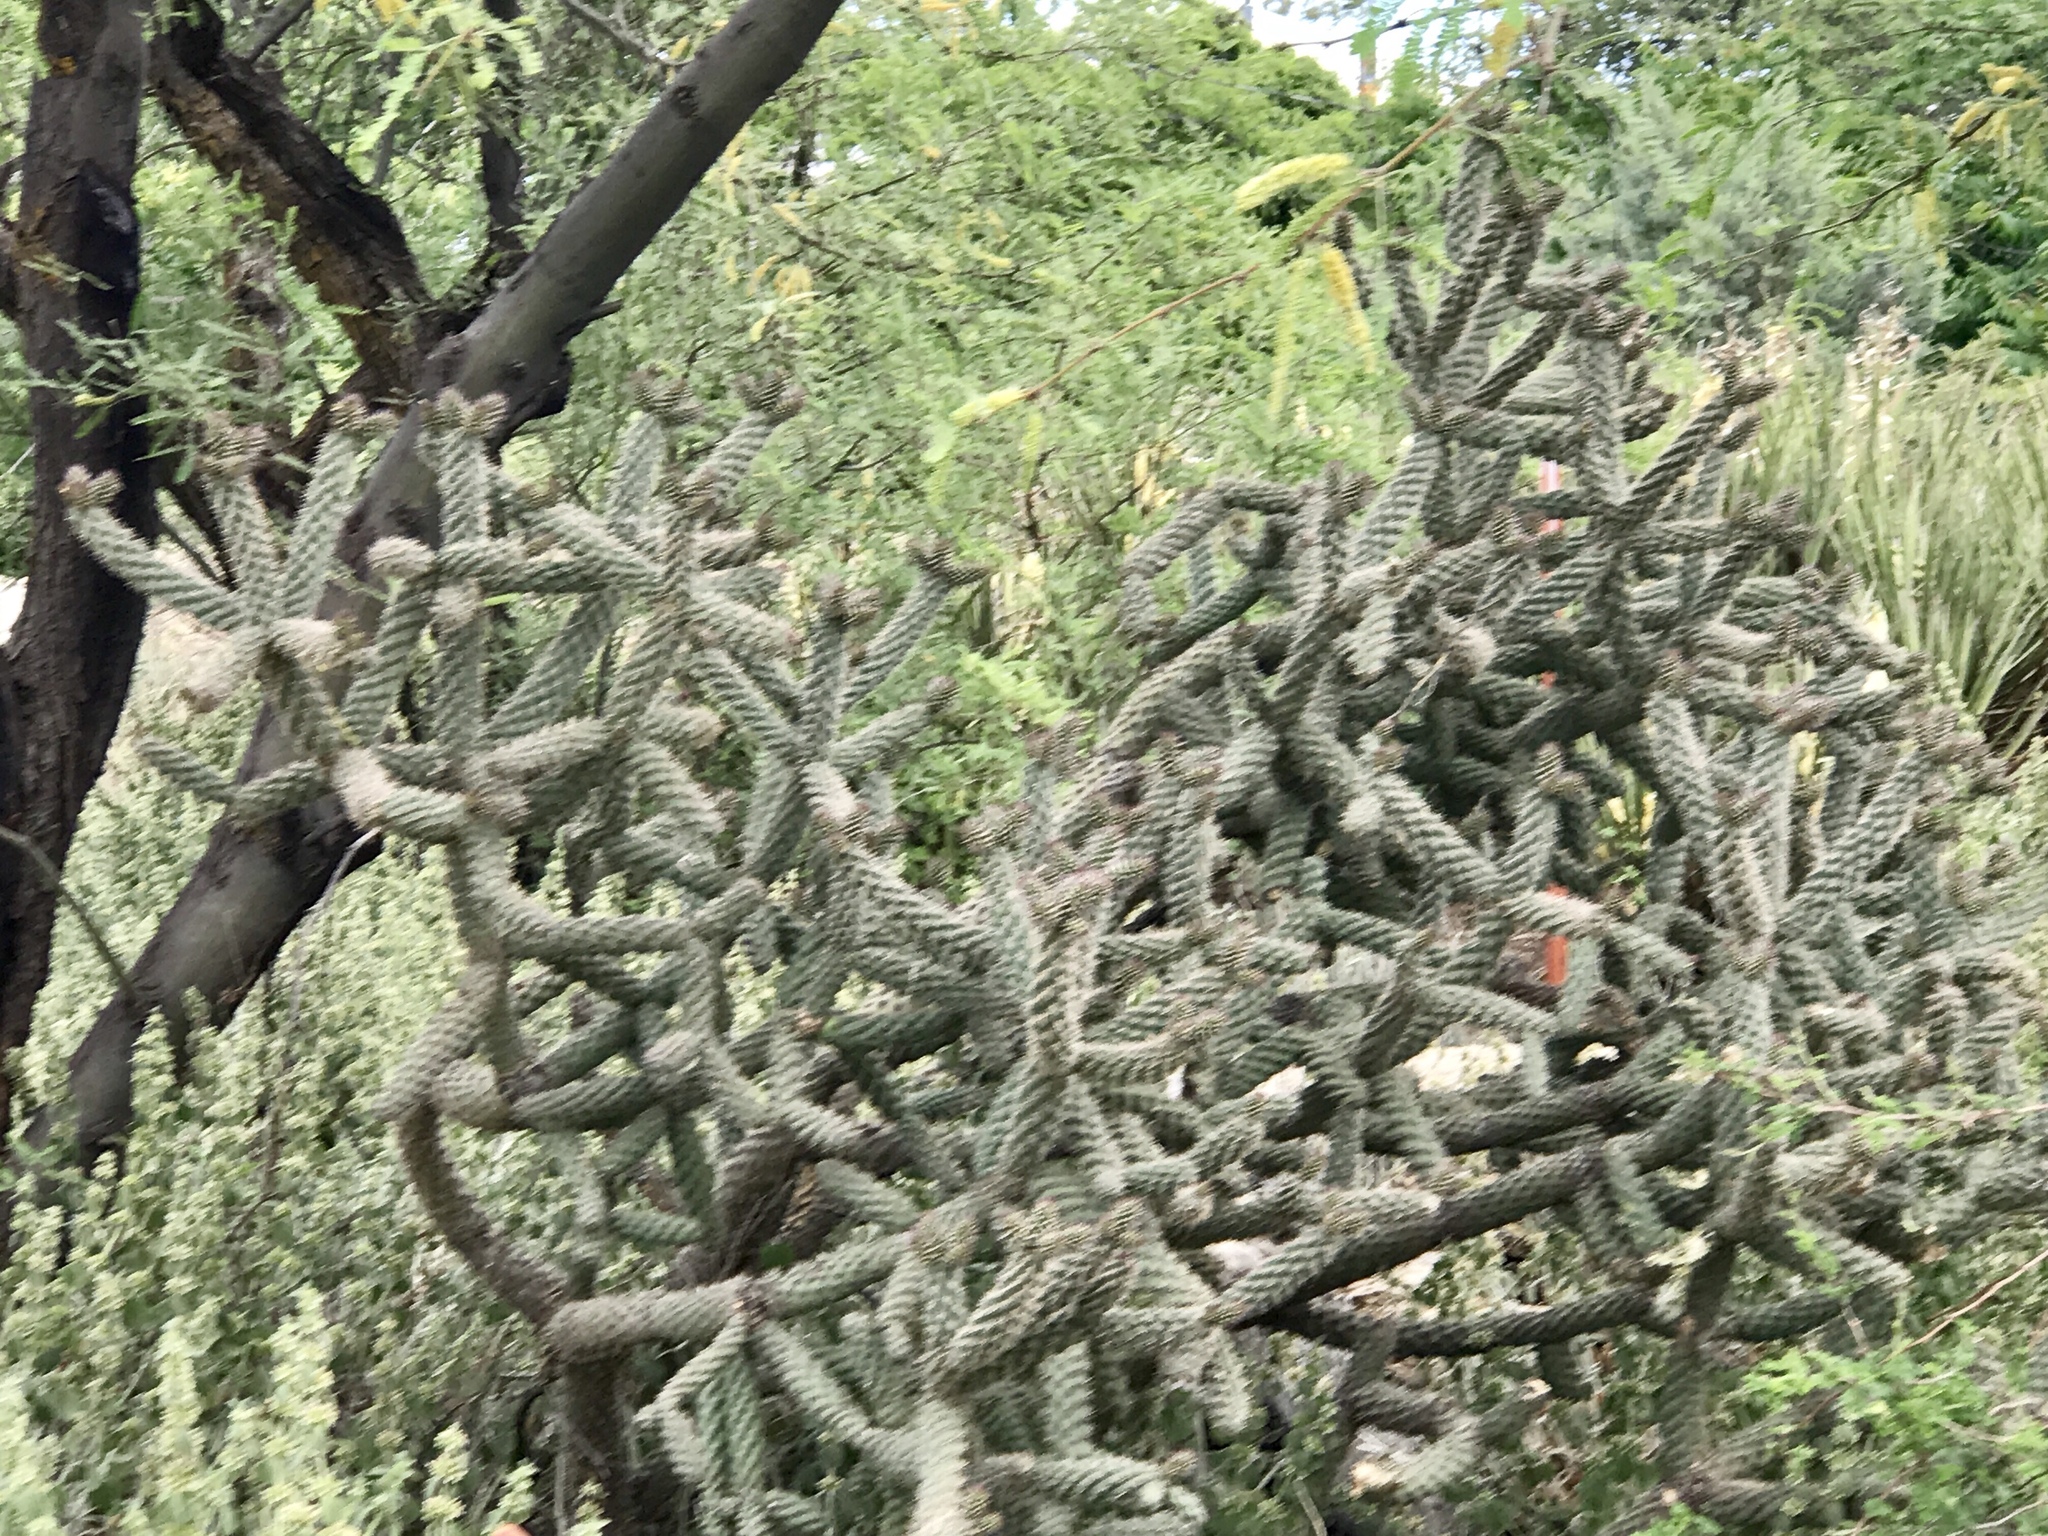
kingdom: Plantae
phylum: Tracheophyta
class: Magnoliopsida
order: Caryophyllales
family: Cactaceae
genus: Cylindropuntia
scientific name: Cylindropuntia imbricata
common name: Candelabrum cactus
